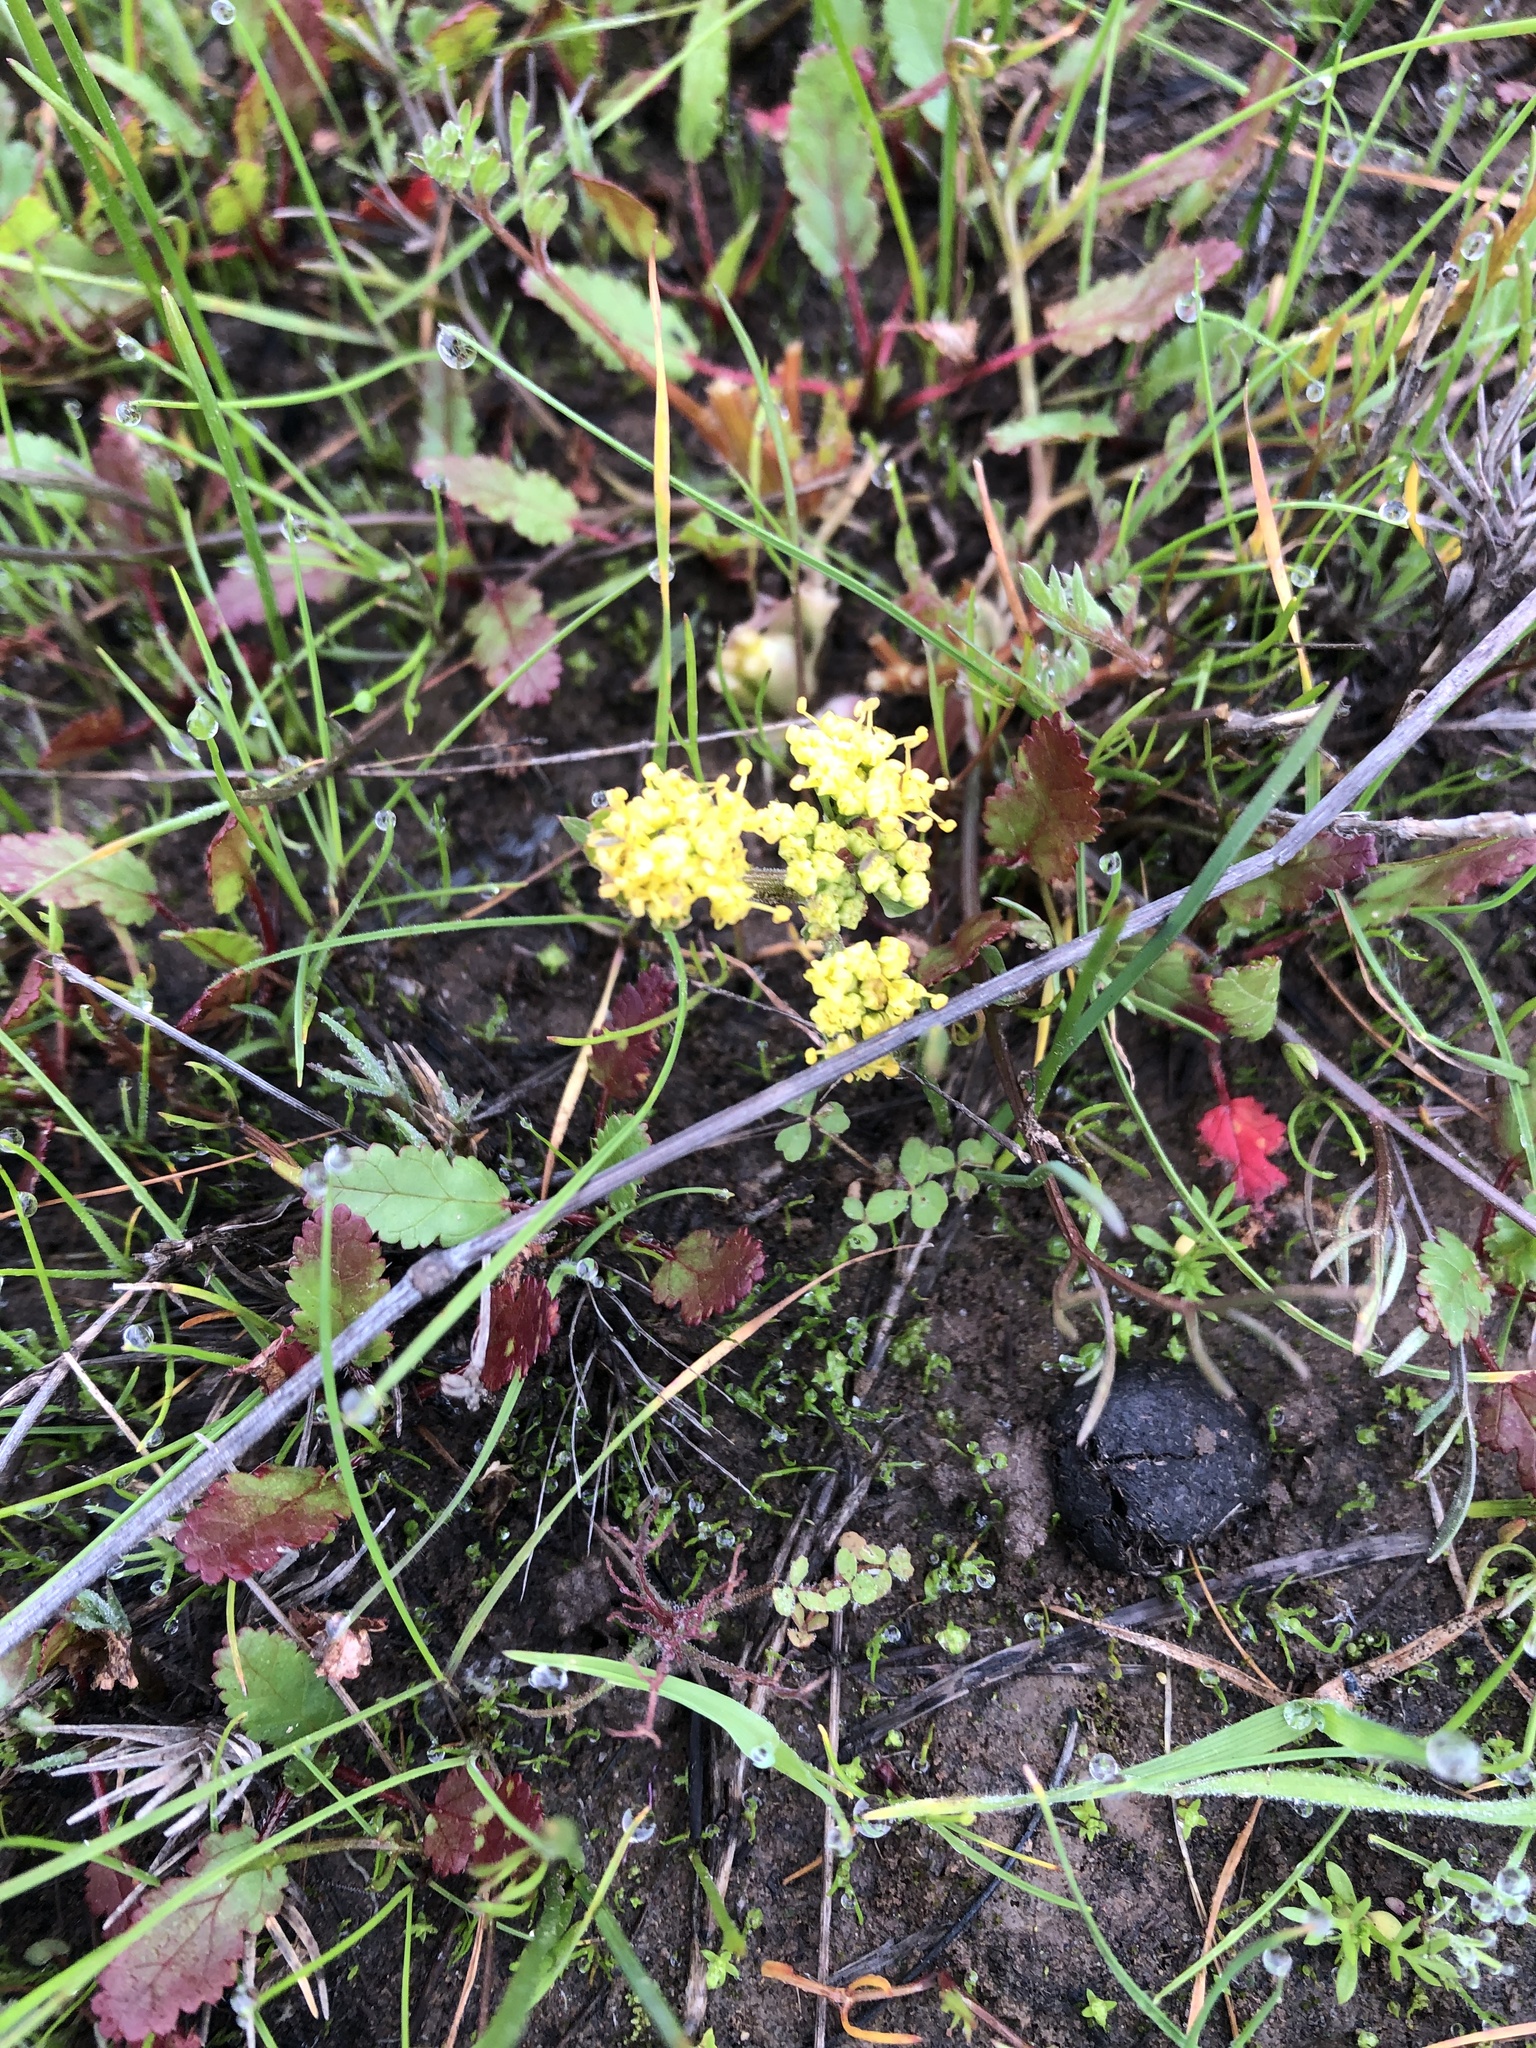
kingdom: Plantae
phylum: Tracheophyta
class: Magnoliopsida
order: Apiales
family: Apiaceae
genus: Lomatium
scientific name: Lomatium caruifolium
